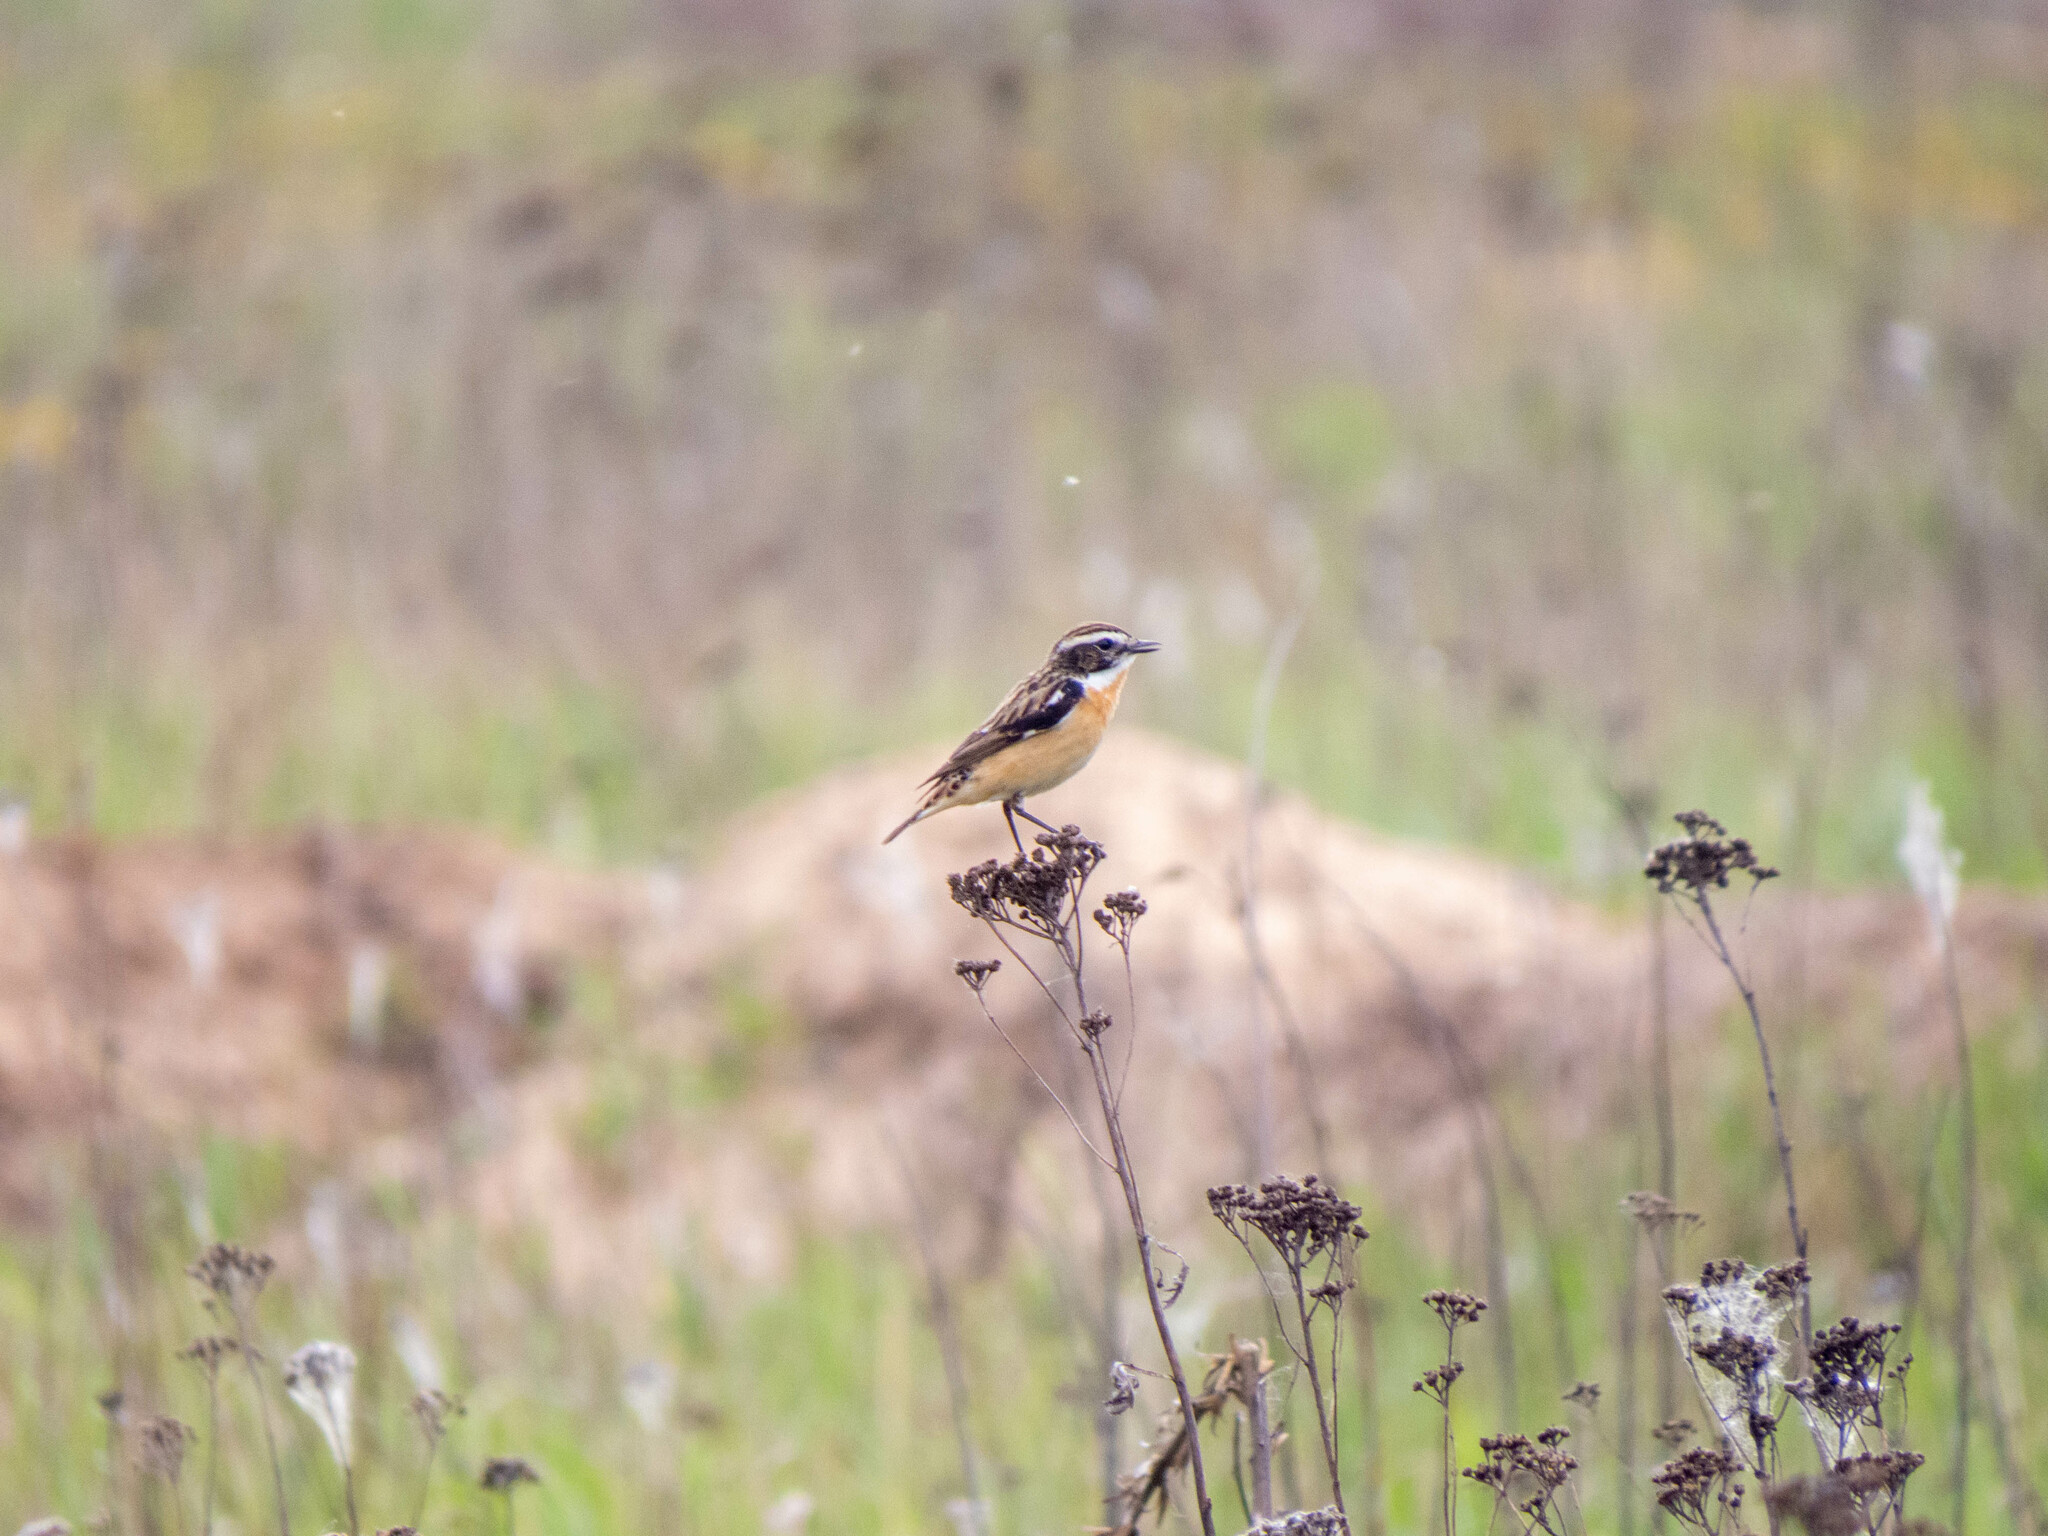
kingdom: Animalia
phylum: Chordata
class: Aves
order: Passeriformes
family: Muscicapidae
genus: Saxicola
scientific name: Saxicola rubetra
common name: Whinchat
